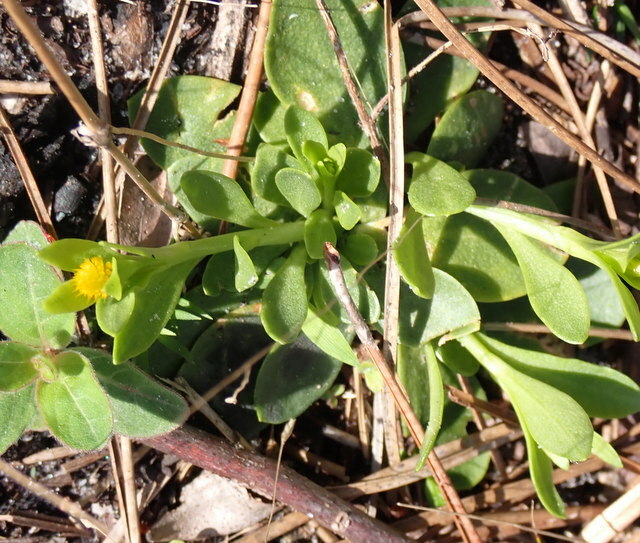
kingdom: Plantae
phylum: Tracheophyta
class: Magnoliopsida
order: Fabales
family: Polygalaceae
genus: Polygala
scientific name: Polygala nana
